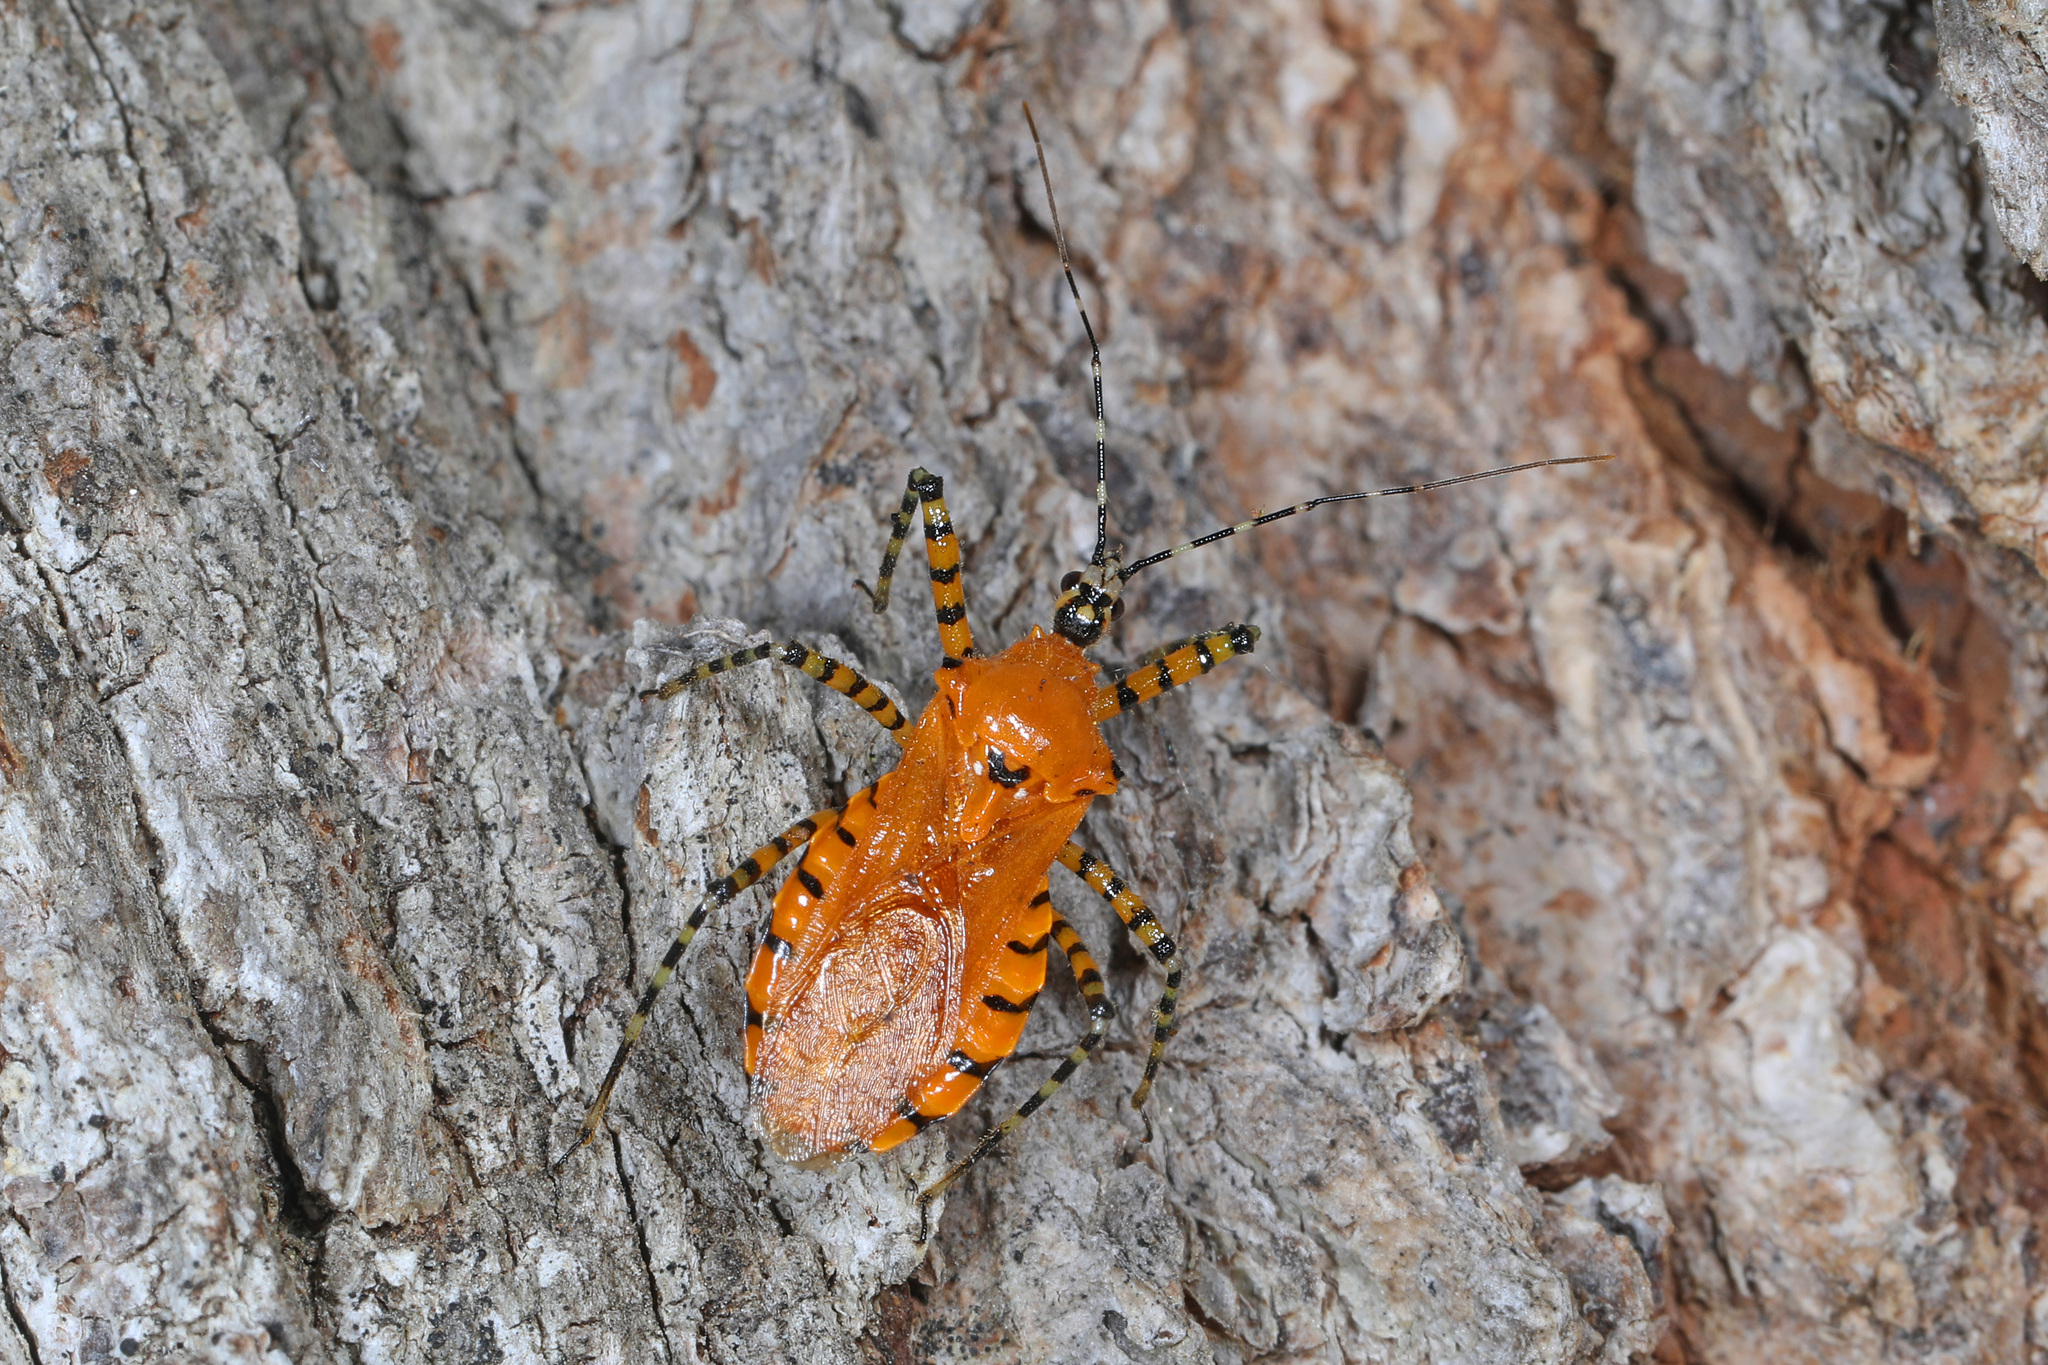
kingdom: Animalia
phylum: Arthropoda
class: Insecta
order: Hemiptera
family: Reduviidae
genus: Pselliopus
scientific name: Pselliopus barberi
